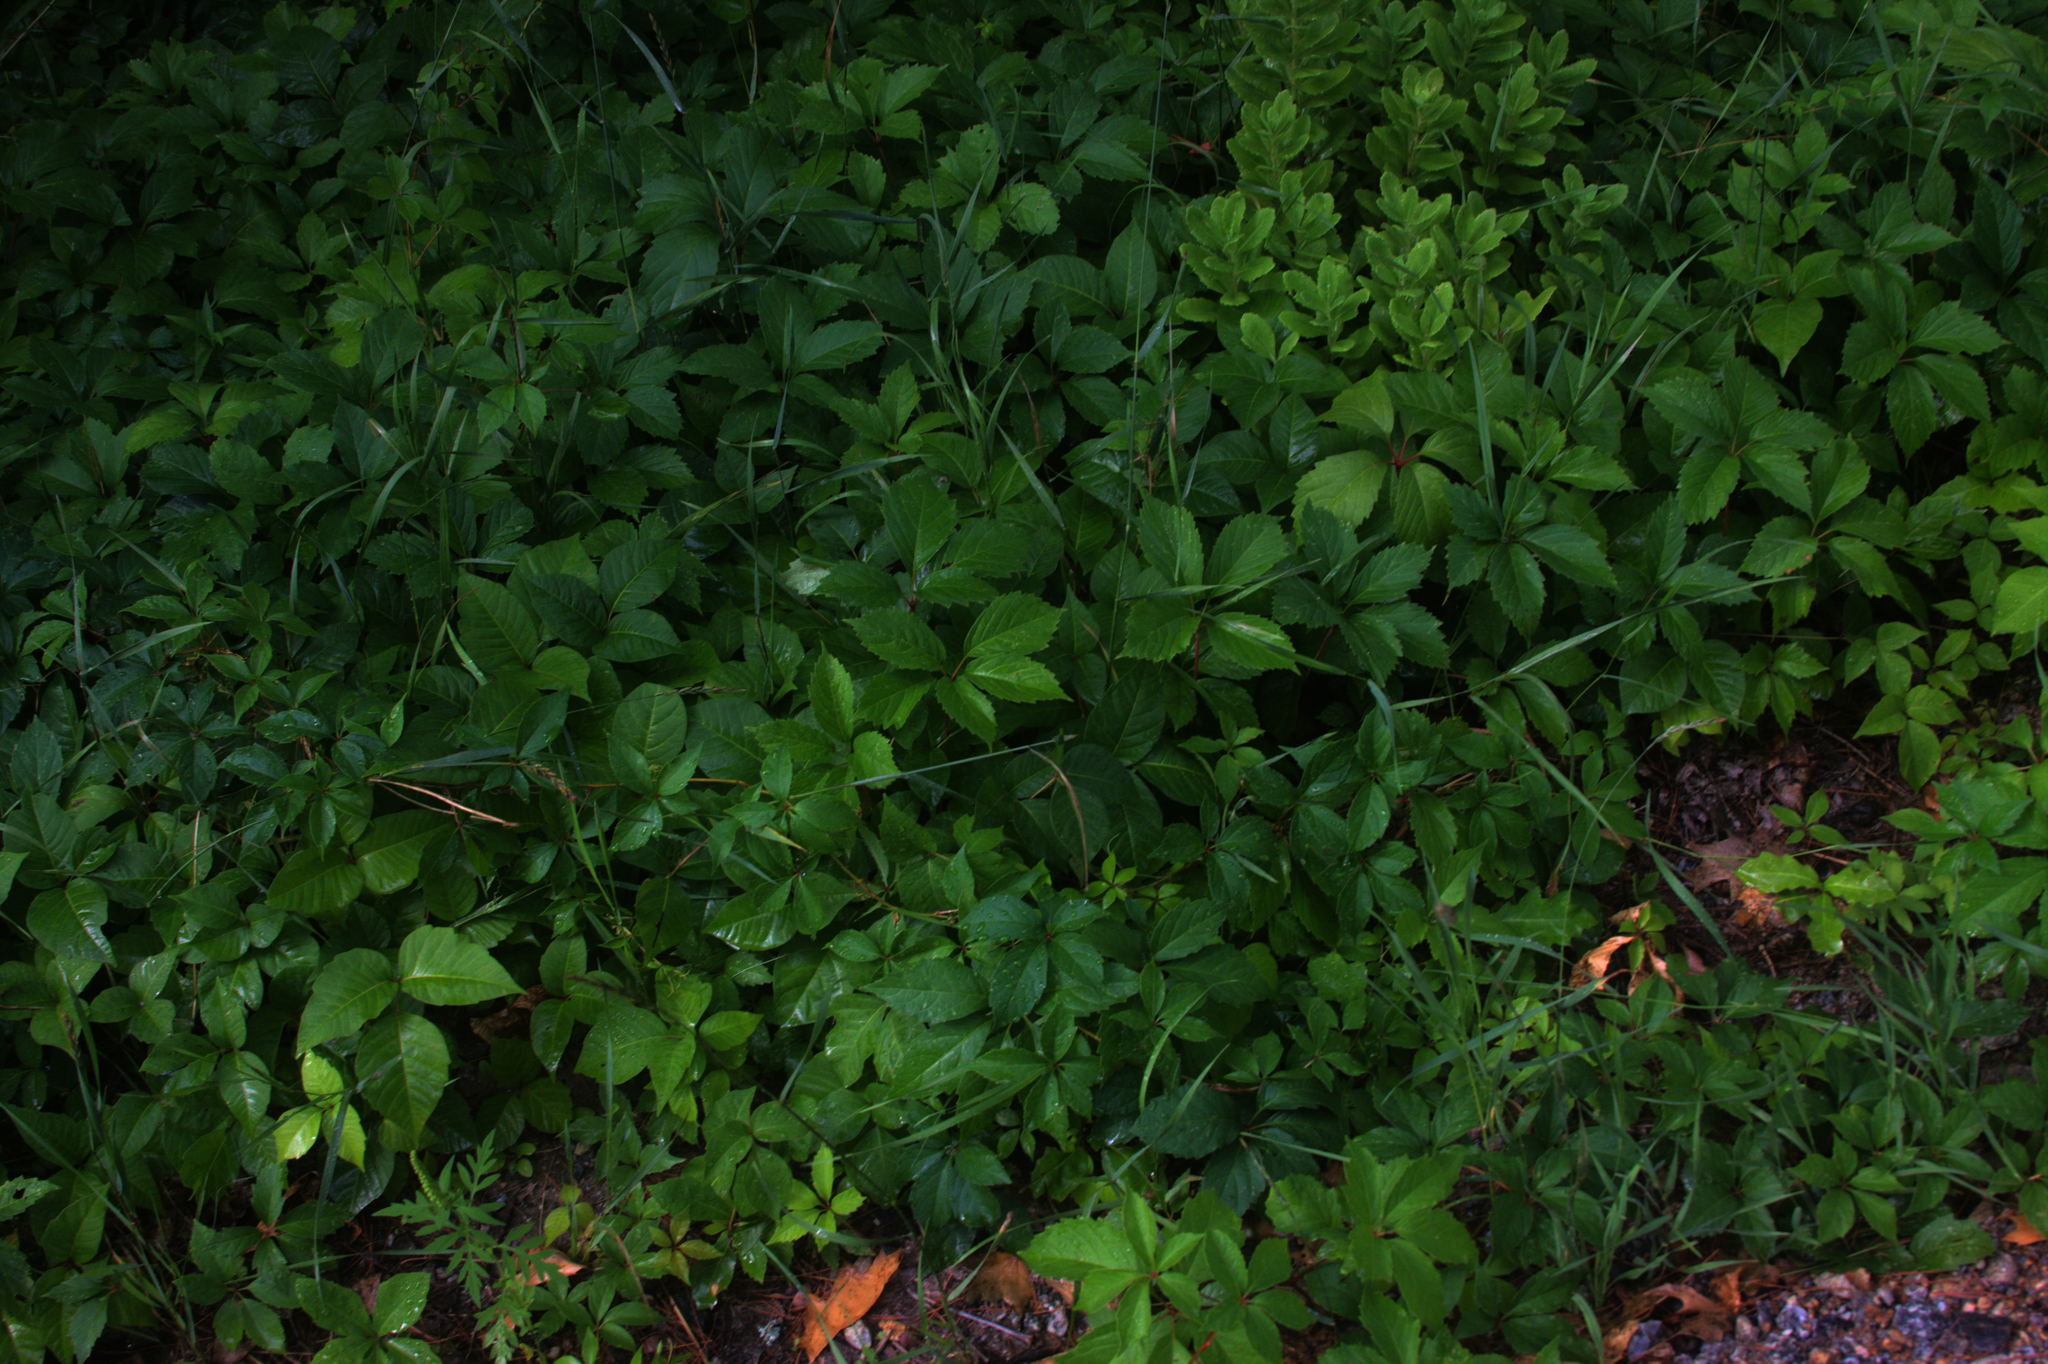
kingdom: Plantae
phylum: Tracheophyta
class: Magnoliopsida
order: Vitales
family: Vitaceae
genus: Parthenocissus
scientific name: Parthenocissus inserta
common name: False virginia-creeper
